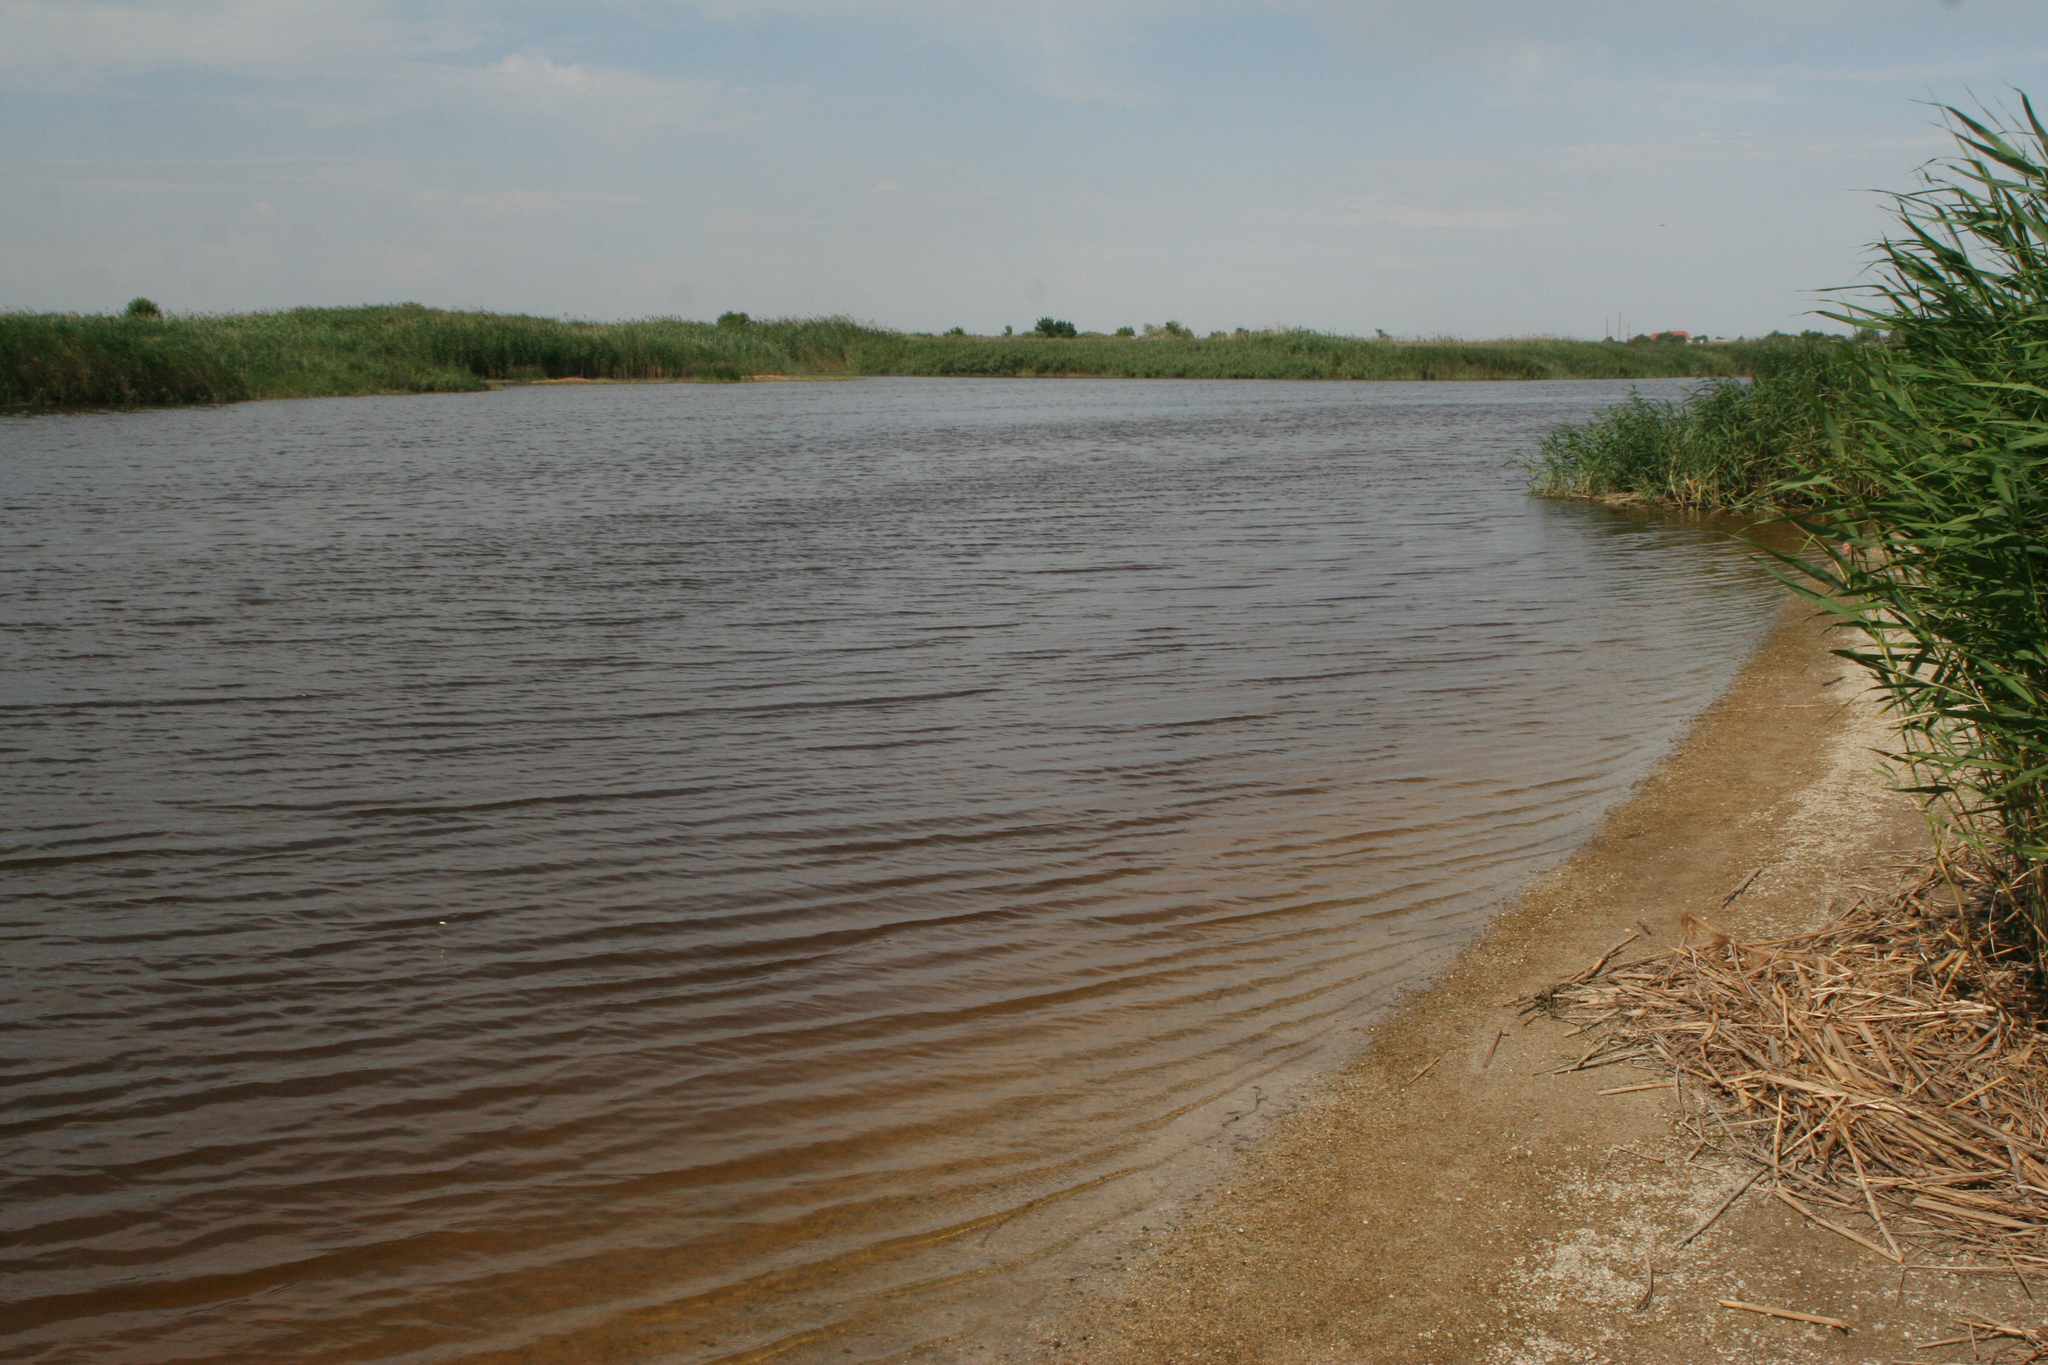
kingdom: Plantae
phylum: Tracheophyta
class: Liliopsida
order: Poales
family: Poaceae
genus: Phragmites
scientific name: Phragmites australis
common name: Common reed
